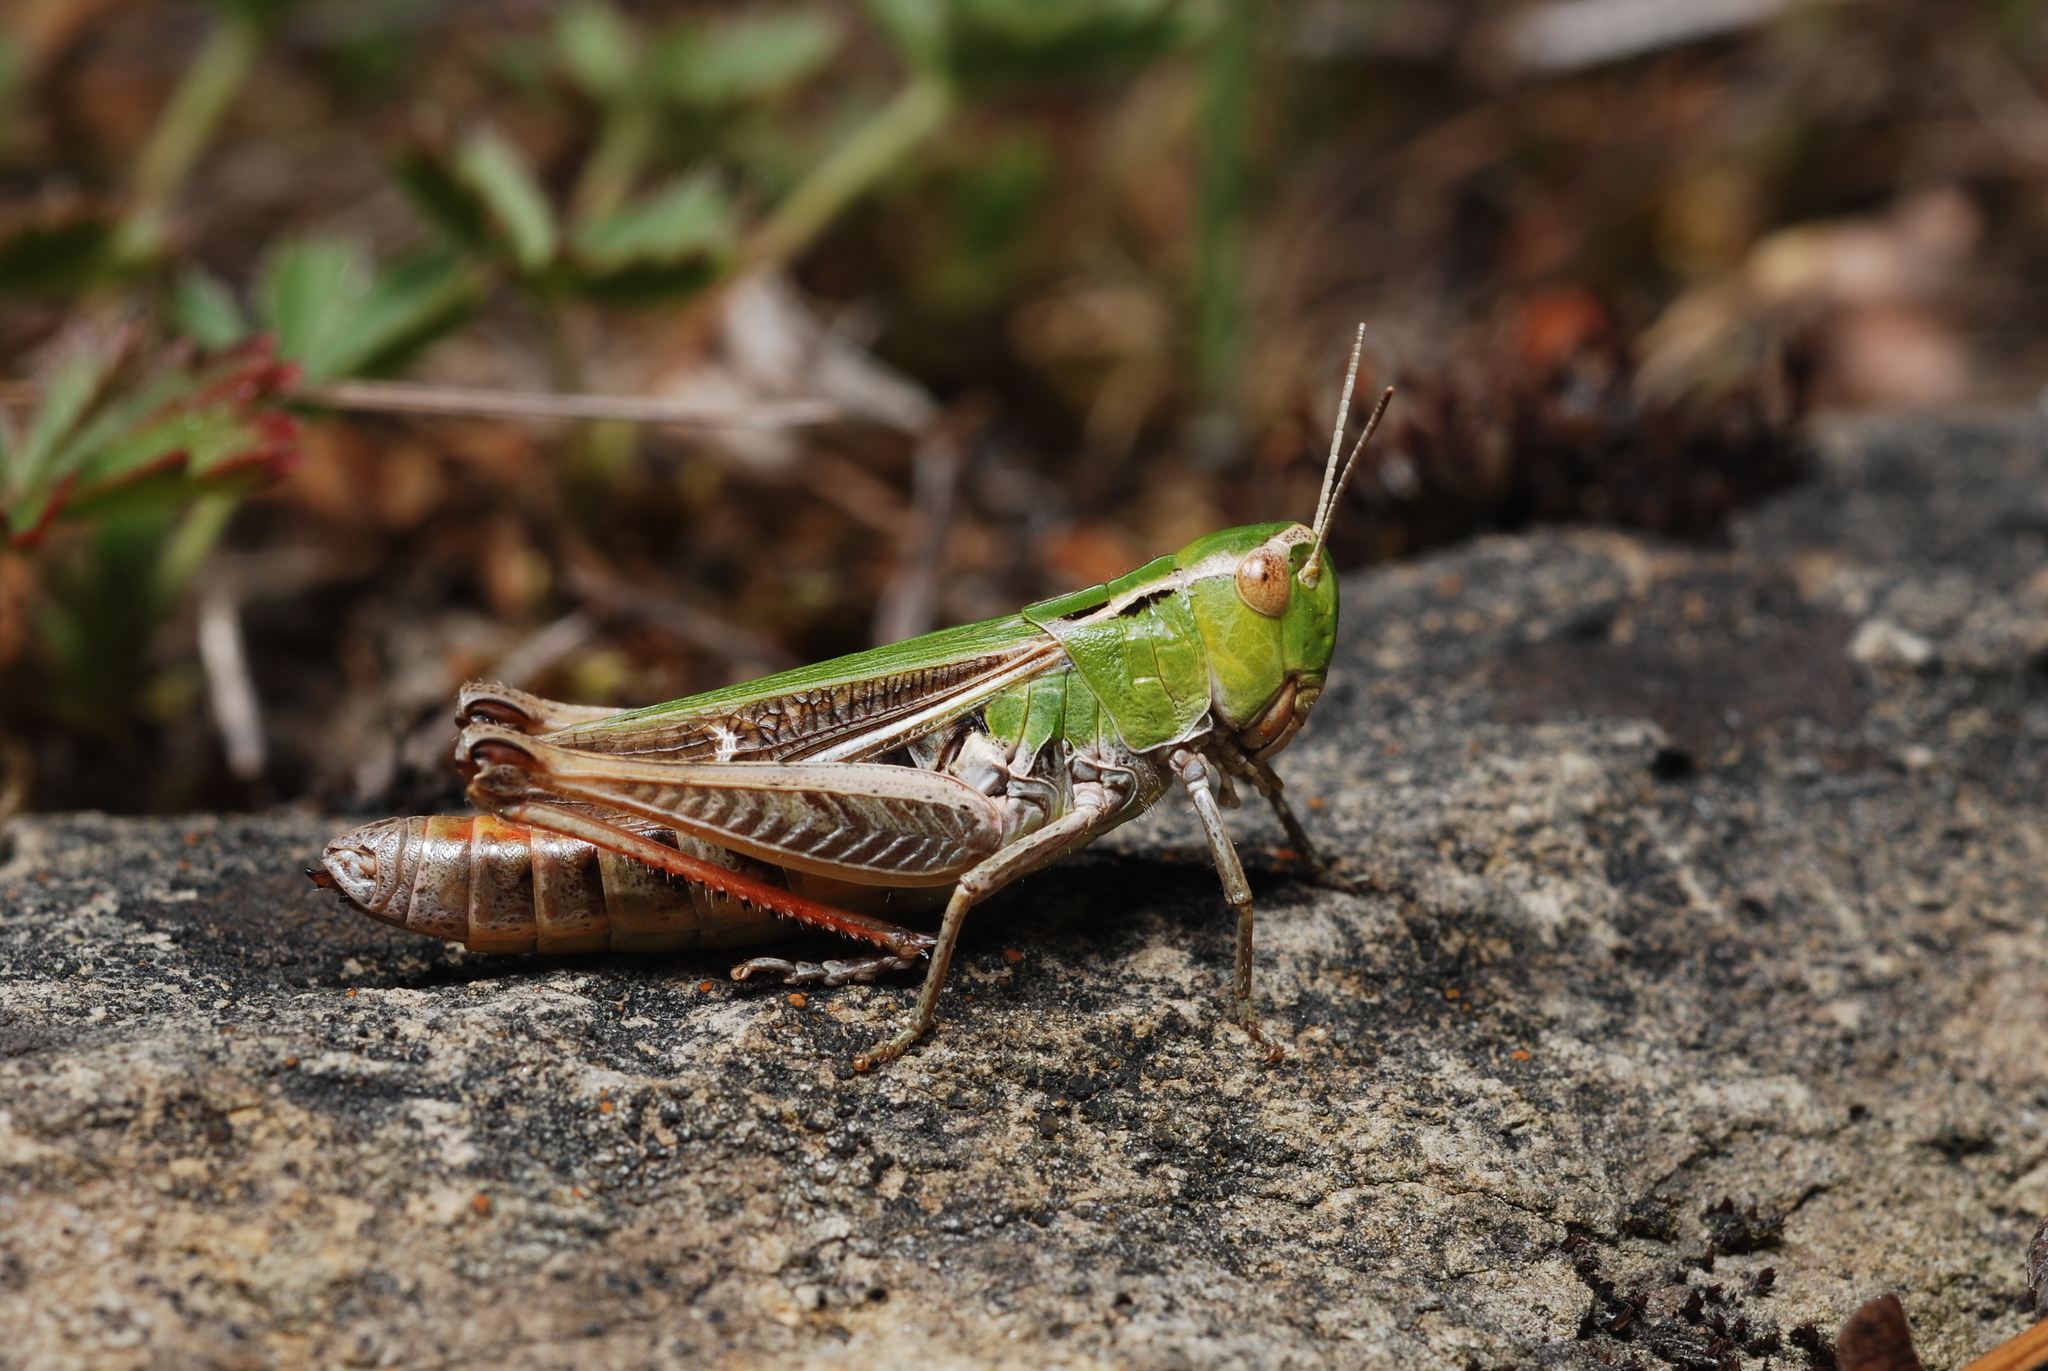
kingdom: Animalia
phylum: Arthropoda
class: Insecta
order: Orthoptera
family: Acrididae
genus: Stenobothrus
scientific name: Stenobothrus lineatus
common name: Stripe-winged grasshopper
